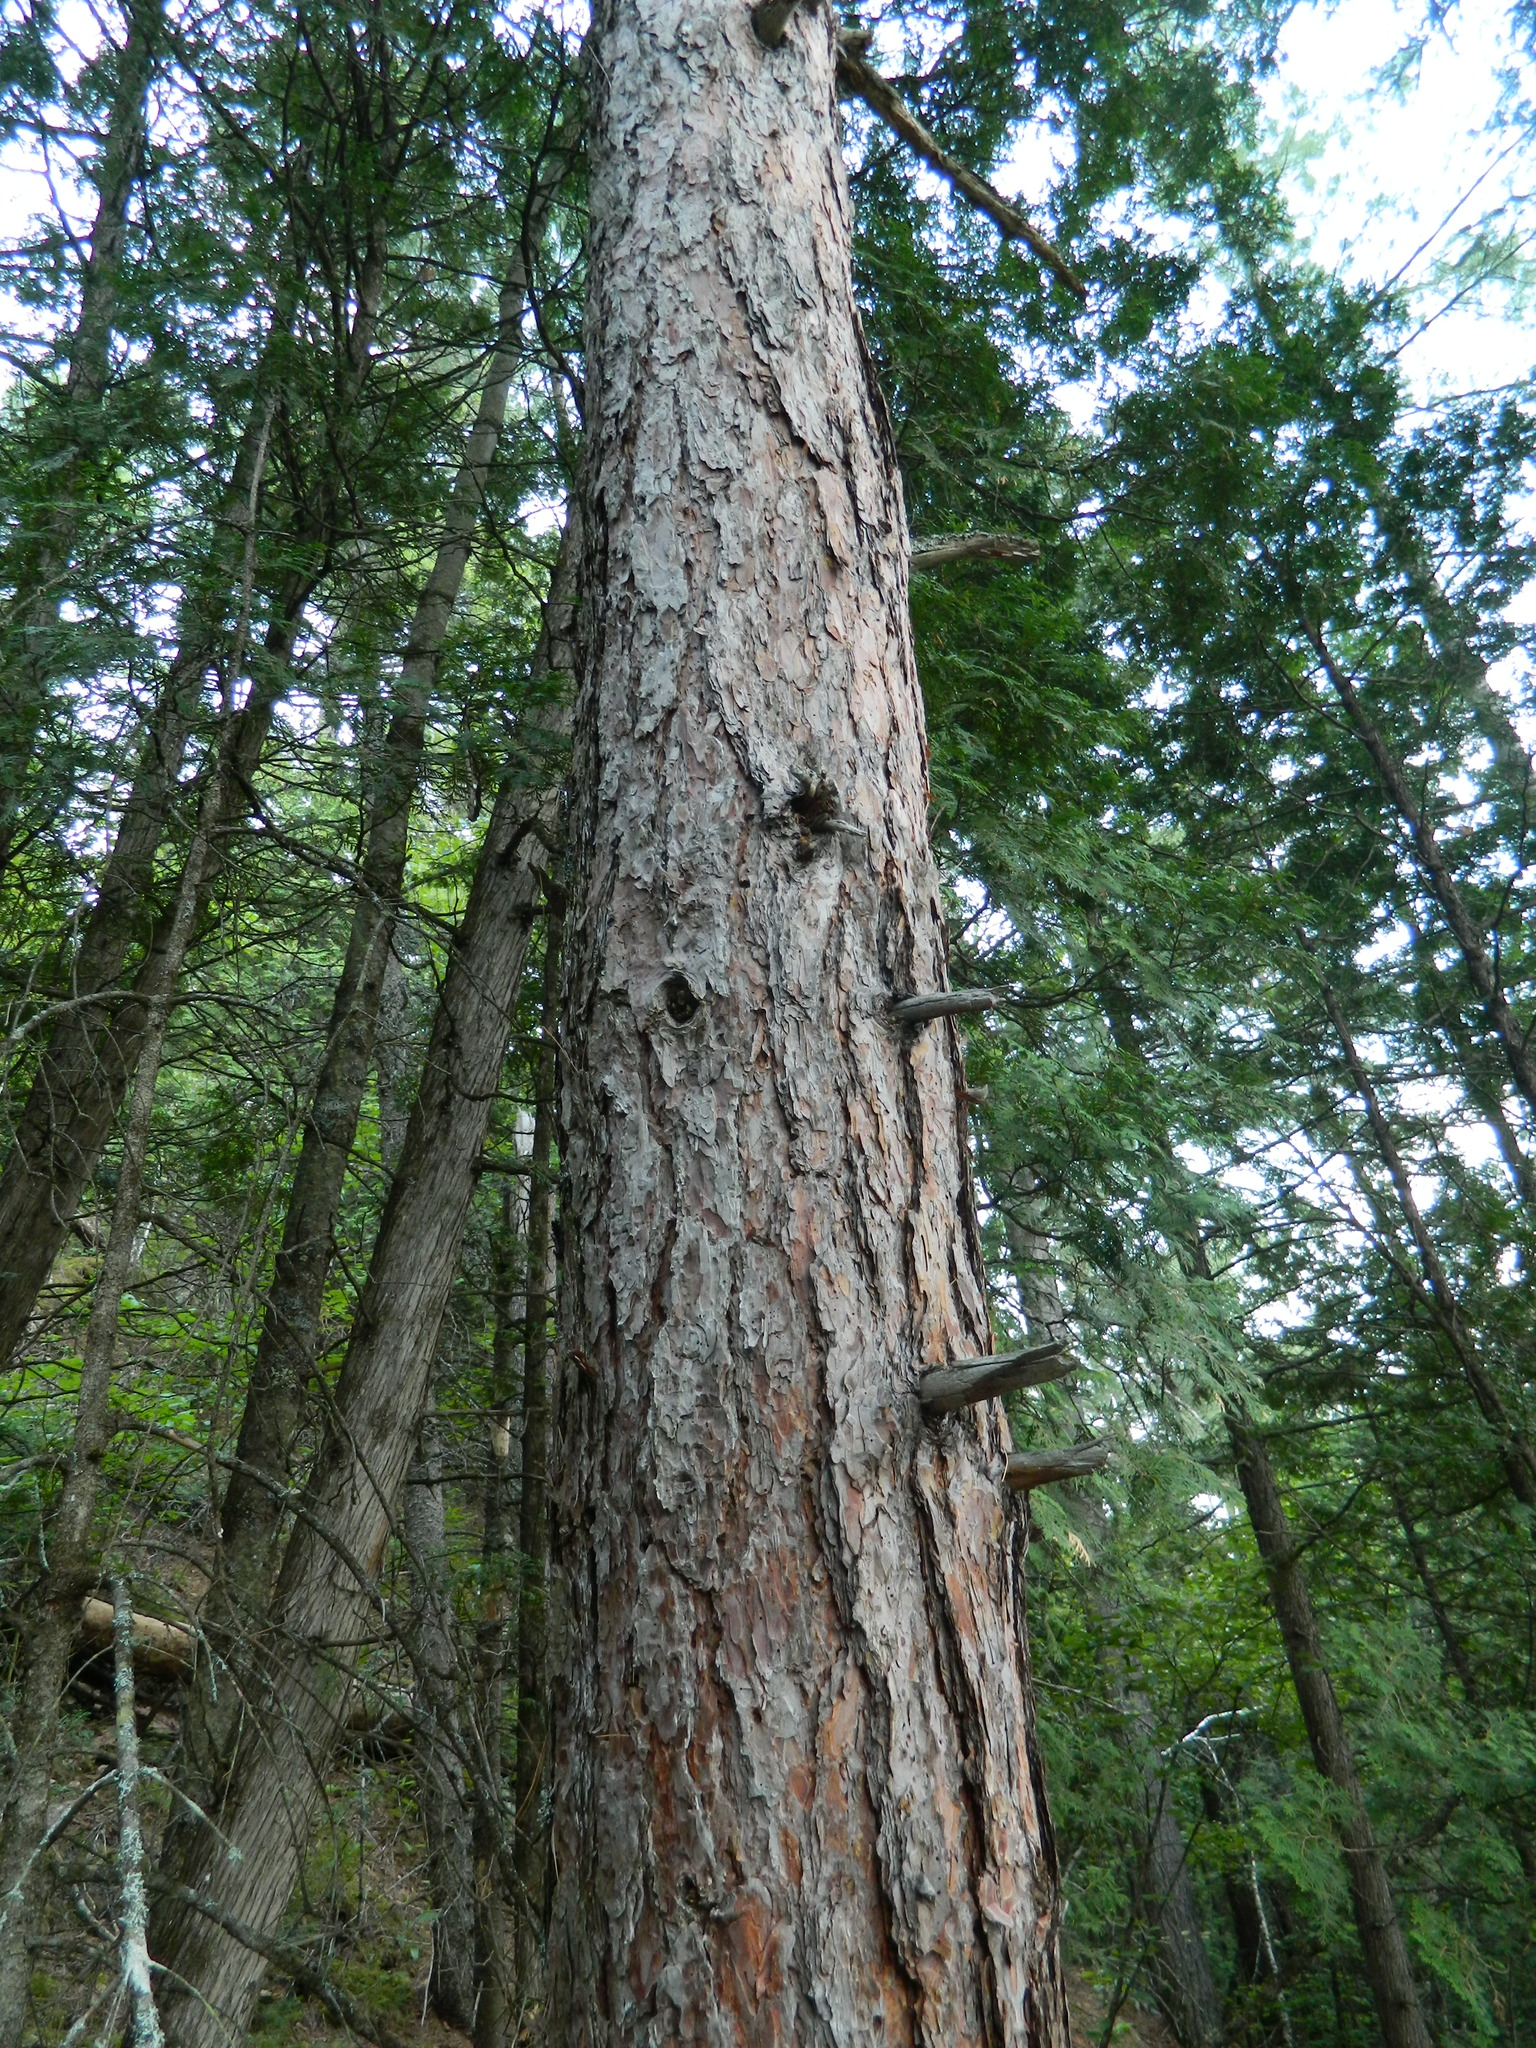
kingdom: Plantae
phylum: Tracheophyta
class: Pinopsida
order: Pinales
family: Pinaceae
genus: Pinus
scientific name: Pinus resinosa
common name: Norway pine
